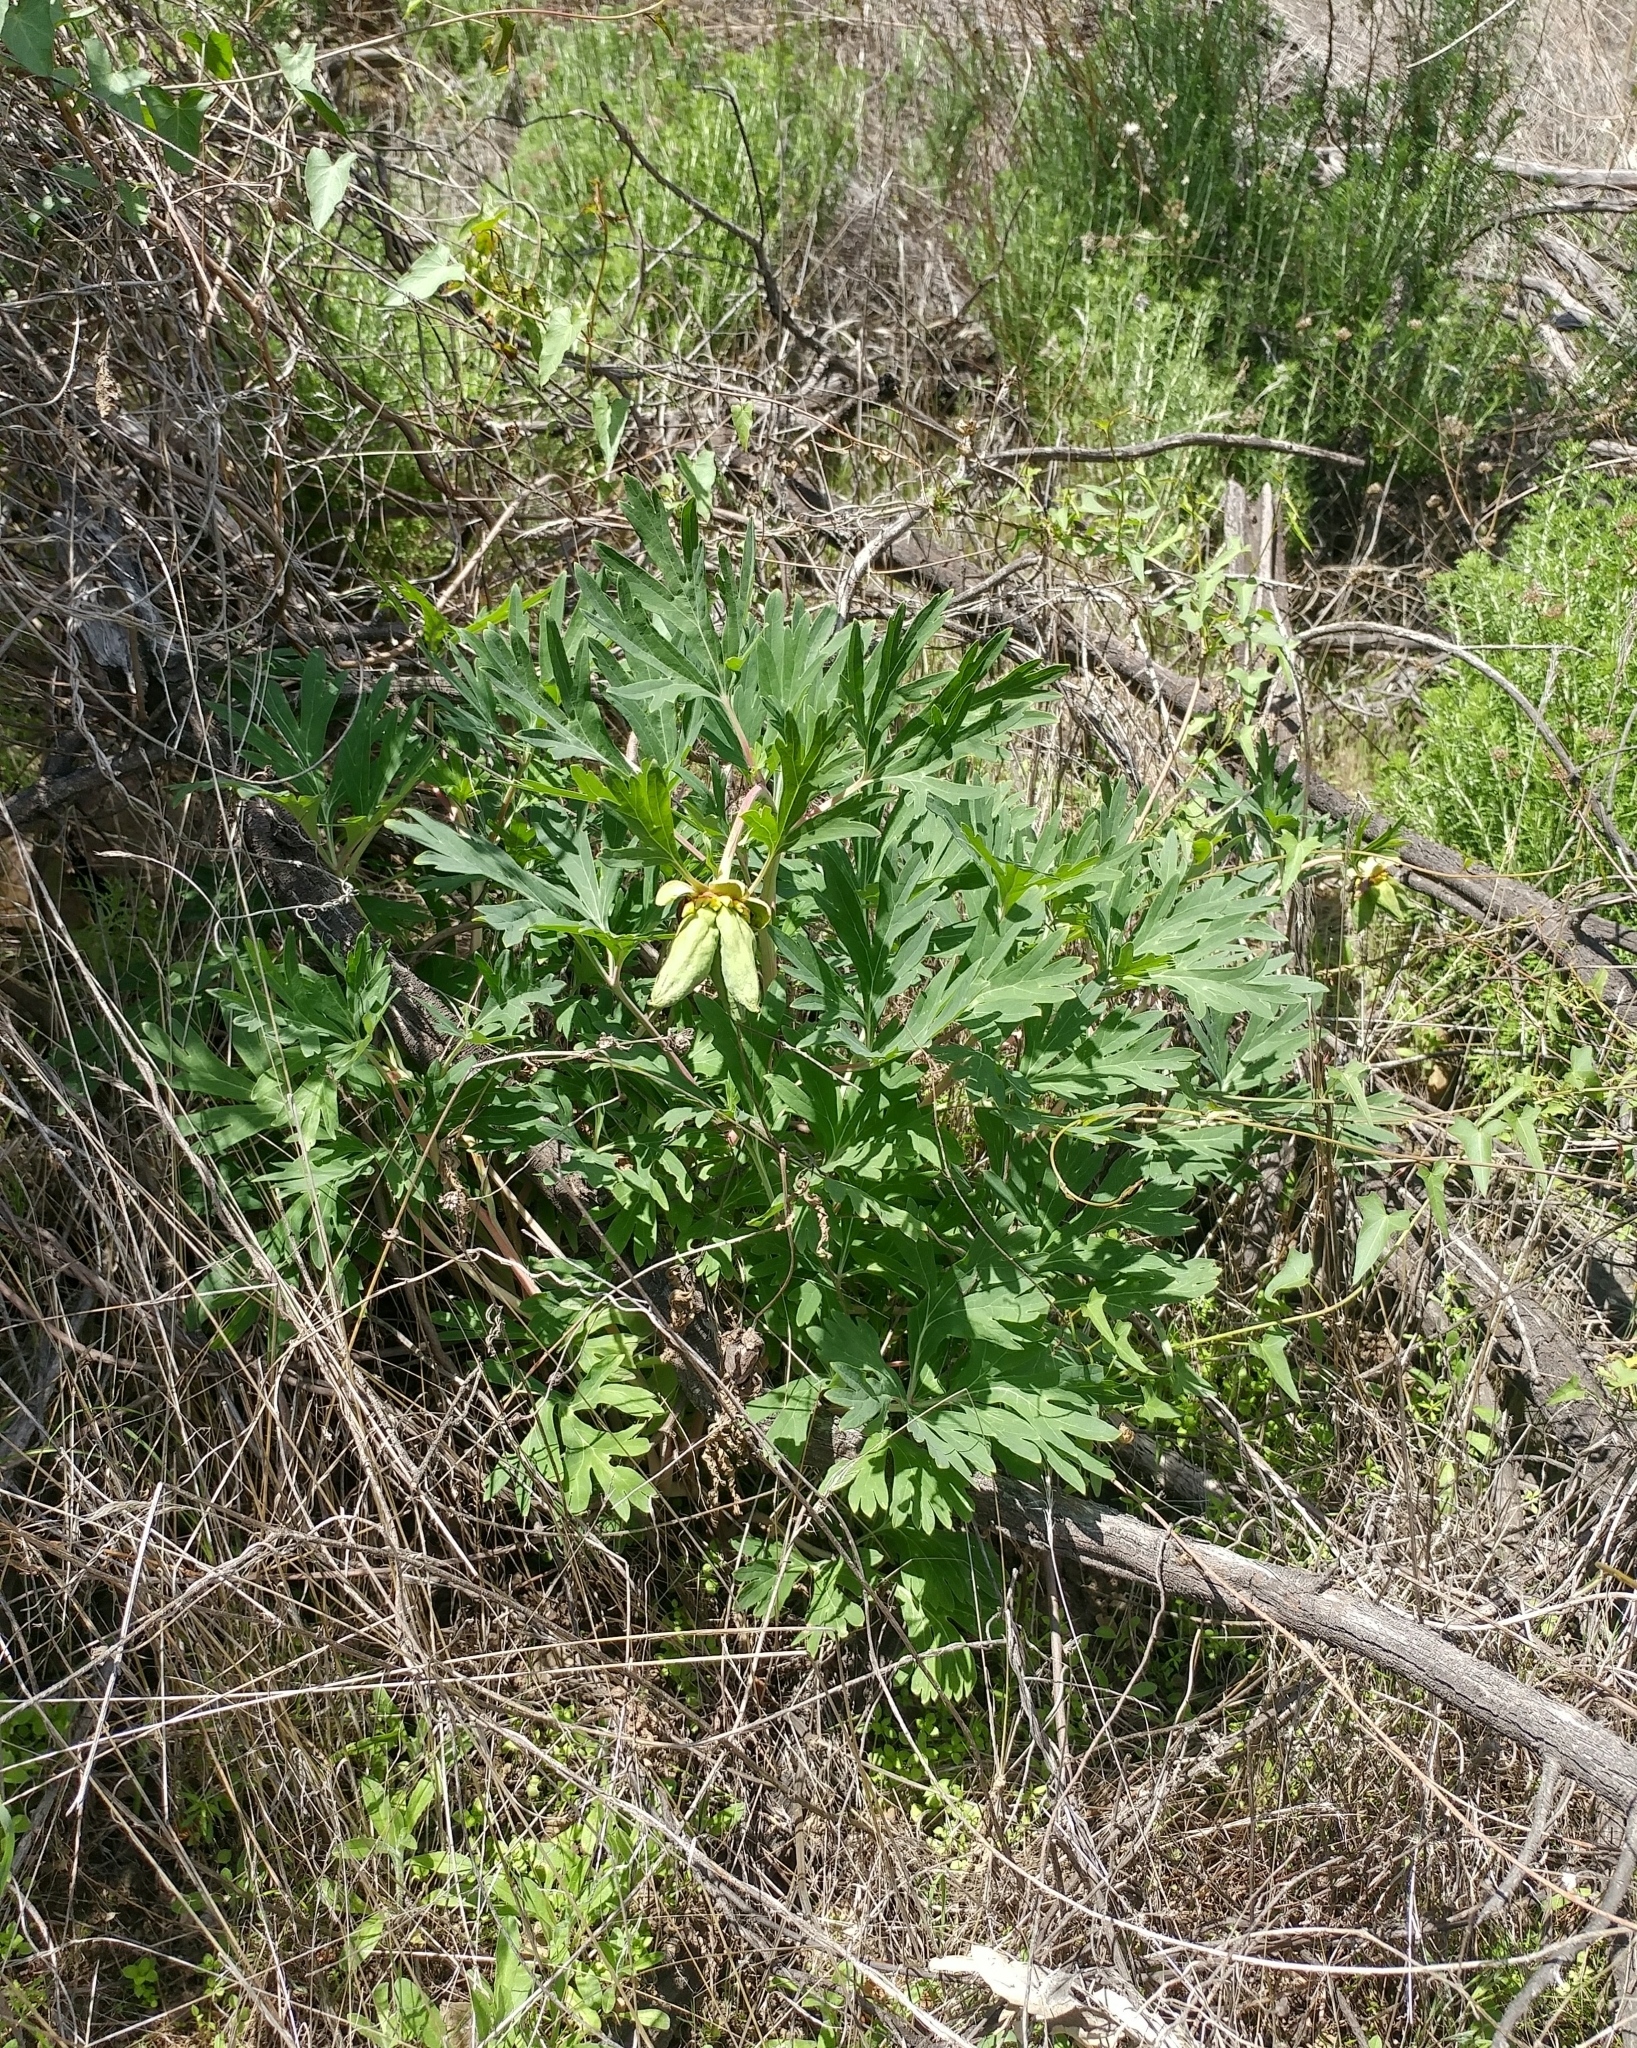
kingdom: Plantae
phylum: Tracheophyta
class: Magnoliopsida
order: Saxifragales
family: Paeoniaceae
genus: Paeonia
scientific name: Paeonia californica
